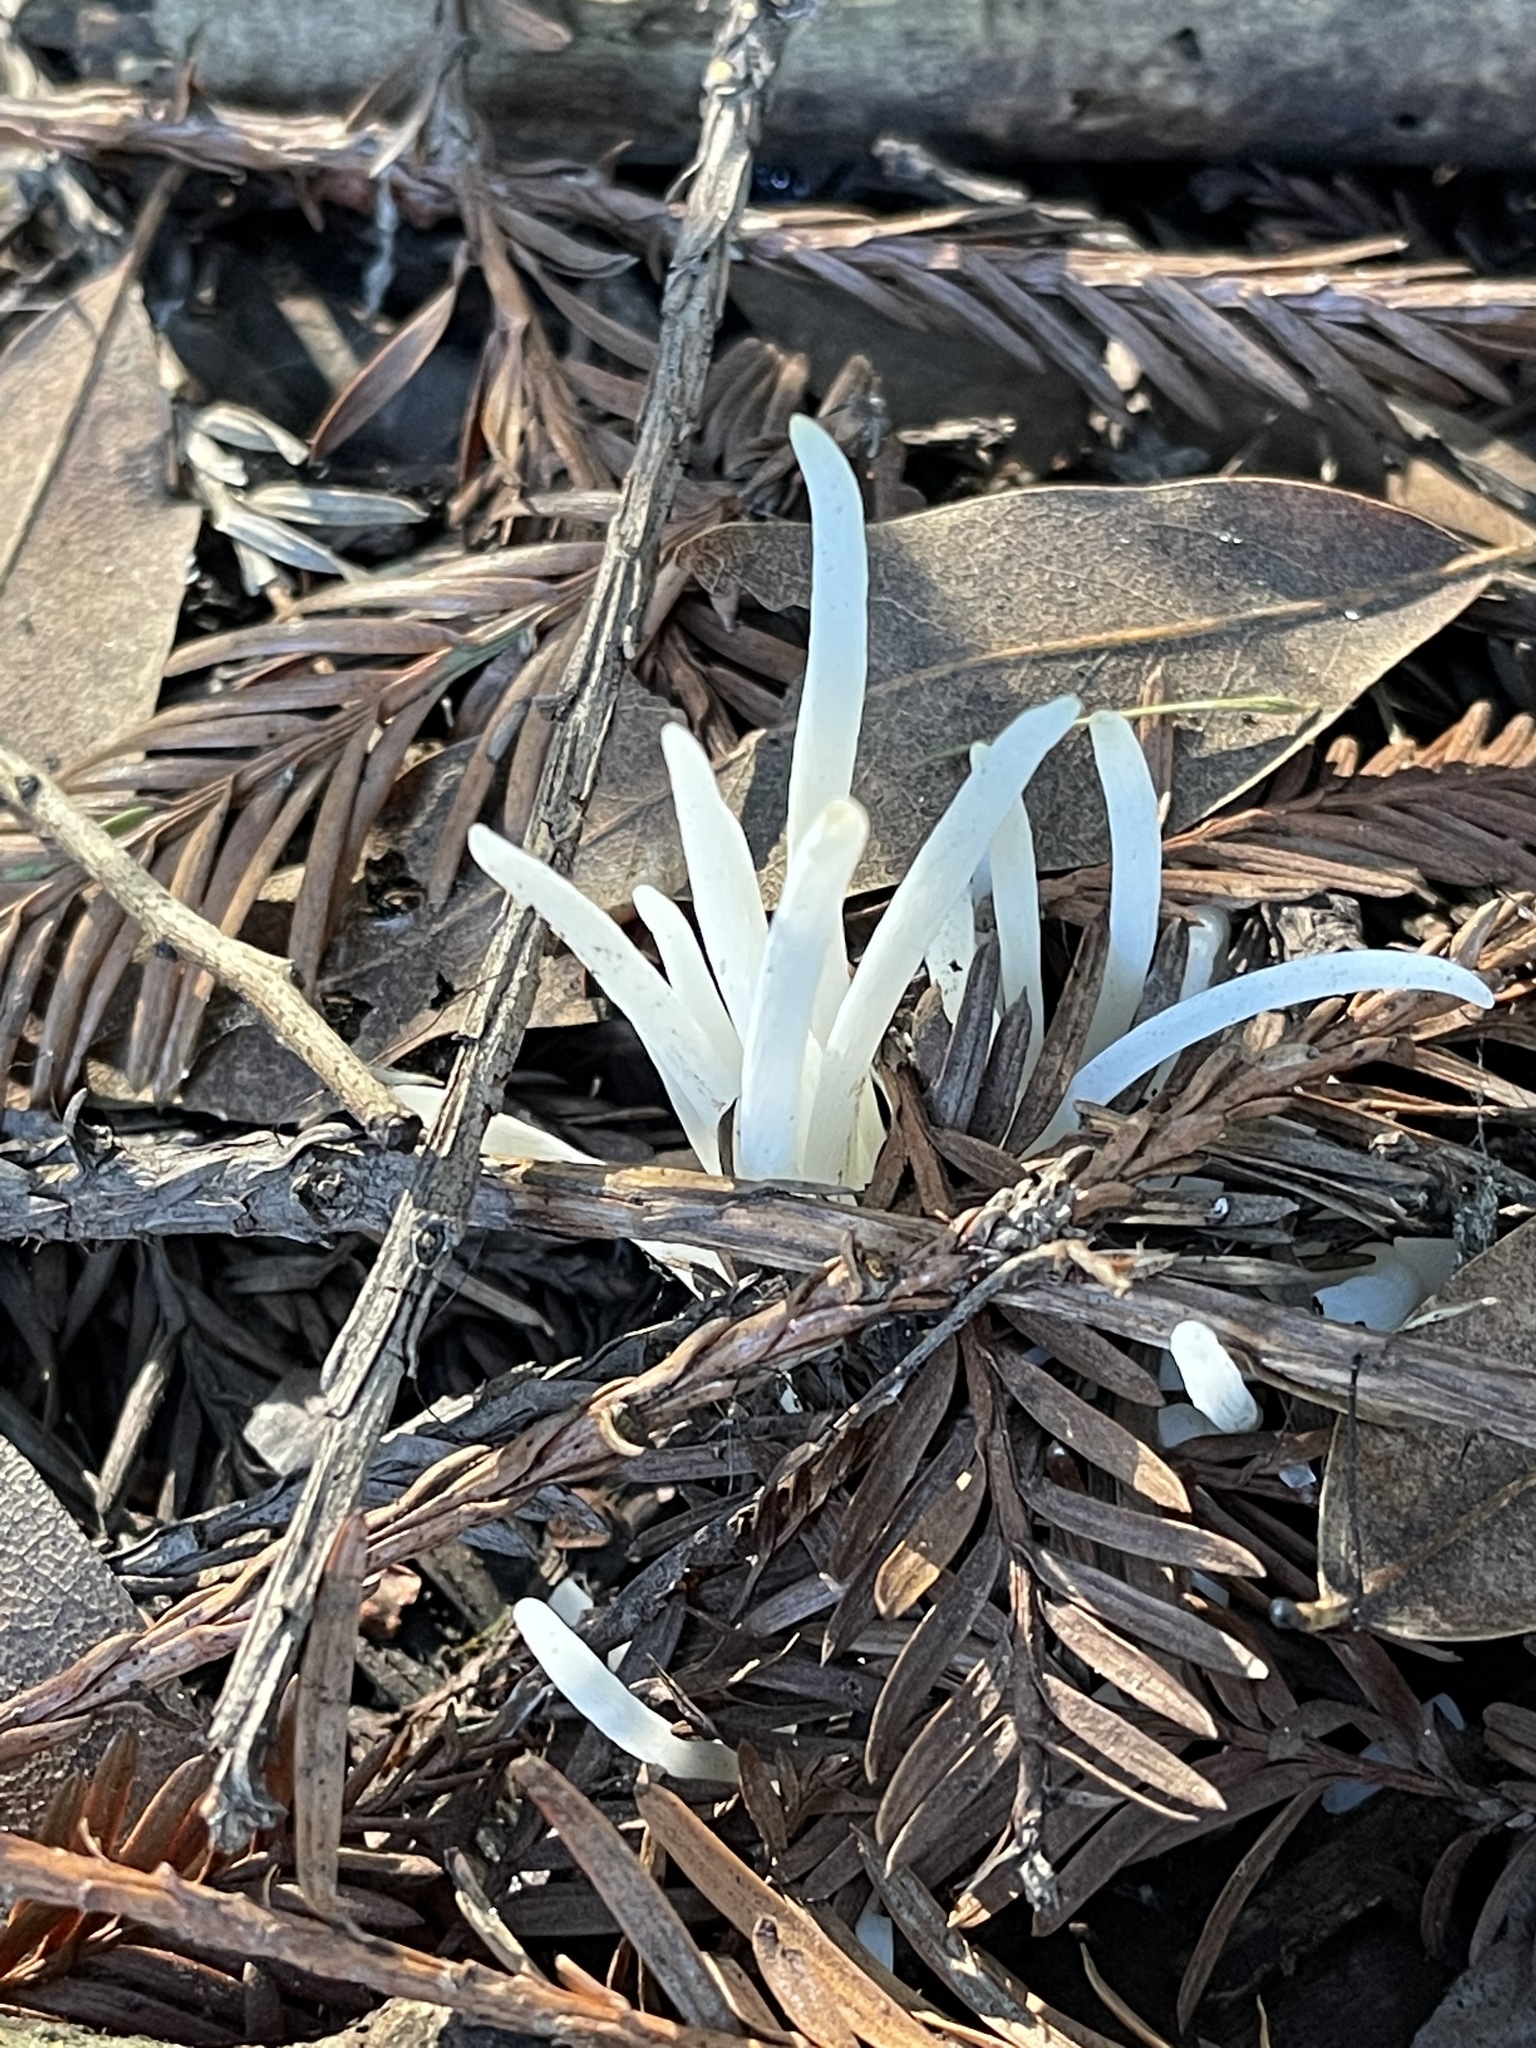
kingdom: Fungi
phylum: Basidiomycota
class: Agaricomycetes
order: Agaricales
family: Clavariaceae
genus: Clavaria
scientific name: Clavaria fragilis
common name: White spindles
